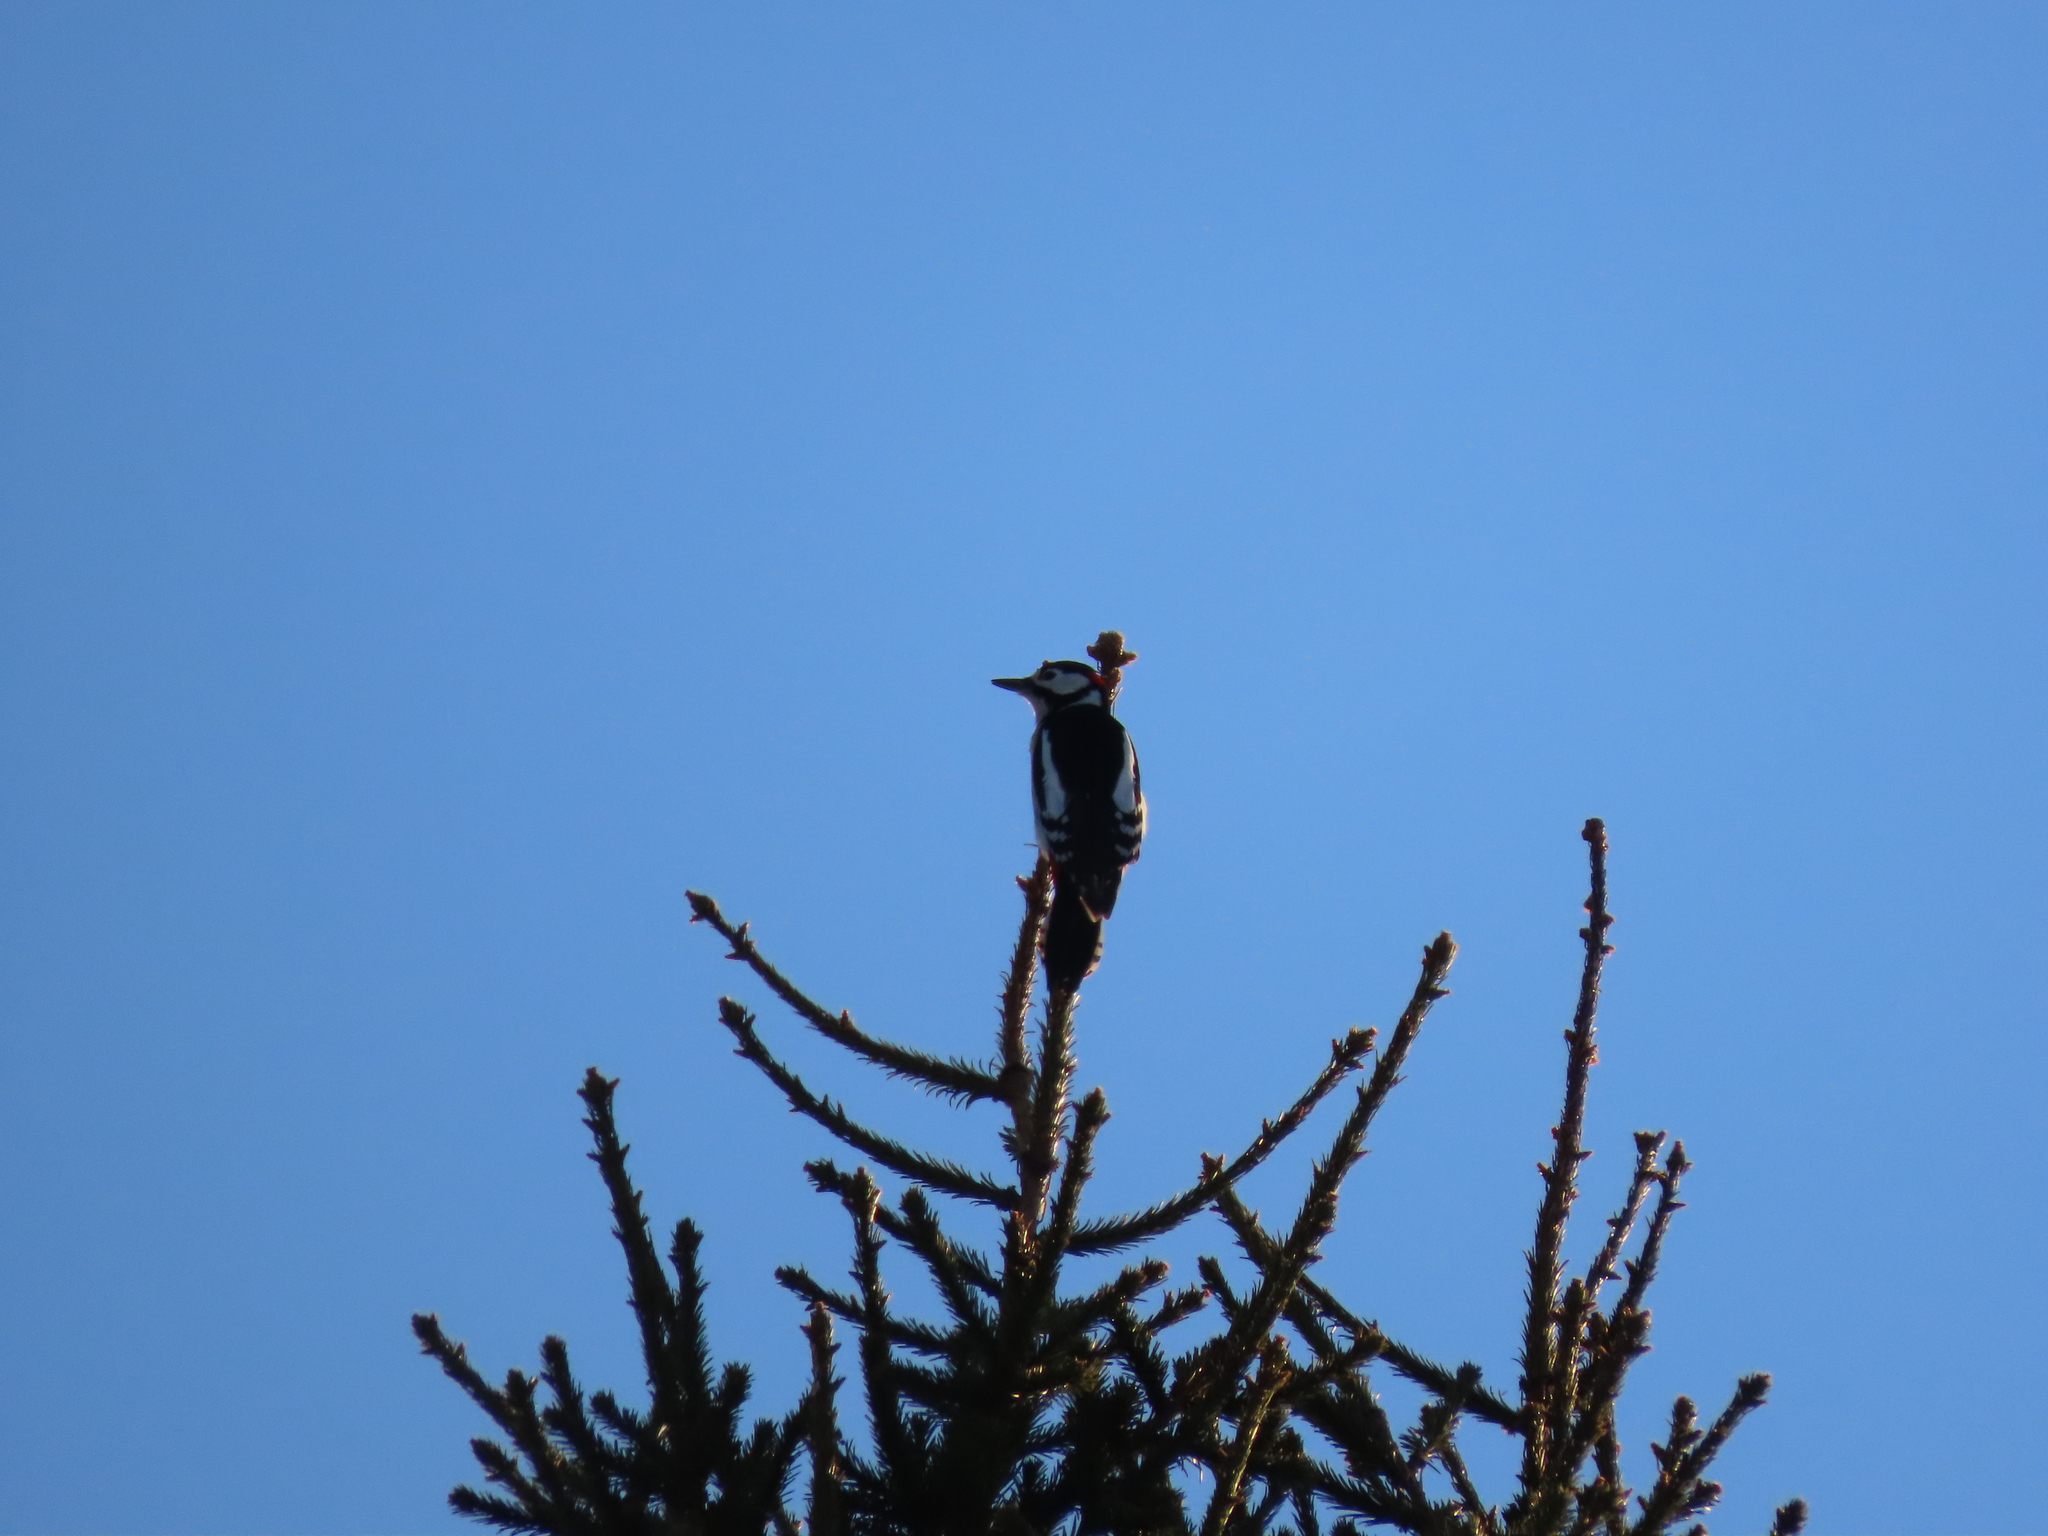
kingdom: Animalia
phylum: Chordata
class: Aves
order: Piciformes
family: Picidae
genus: Dendrocopos
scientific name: Dendrocopos major
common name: Great spotted woodpecker
